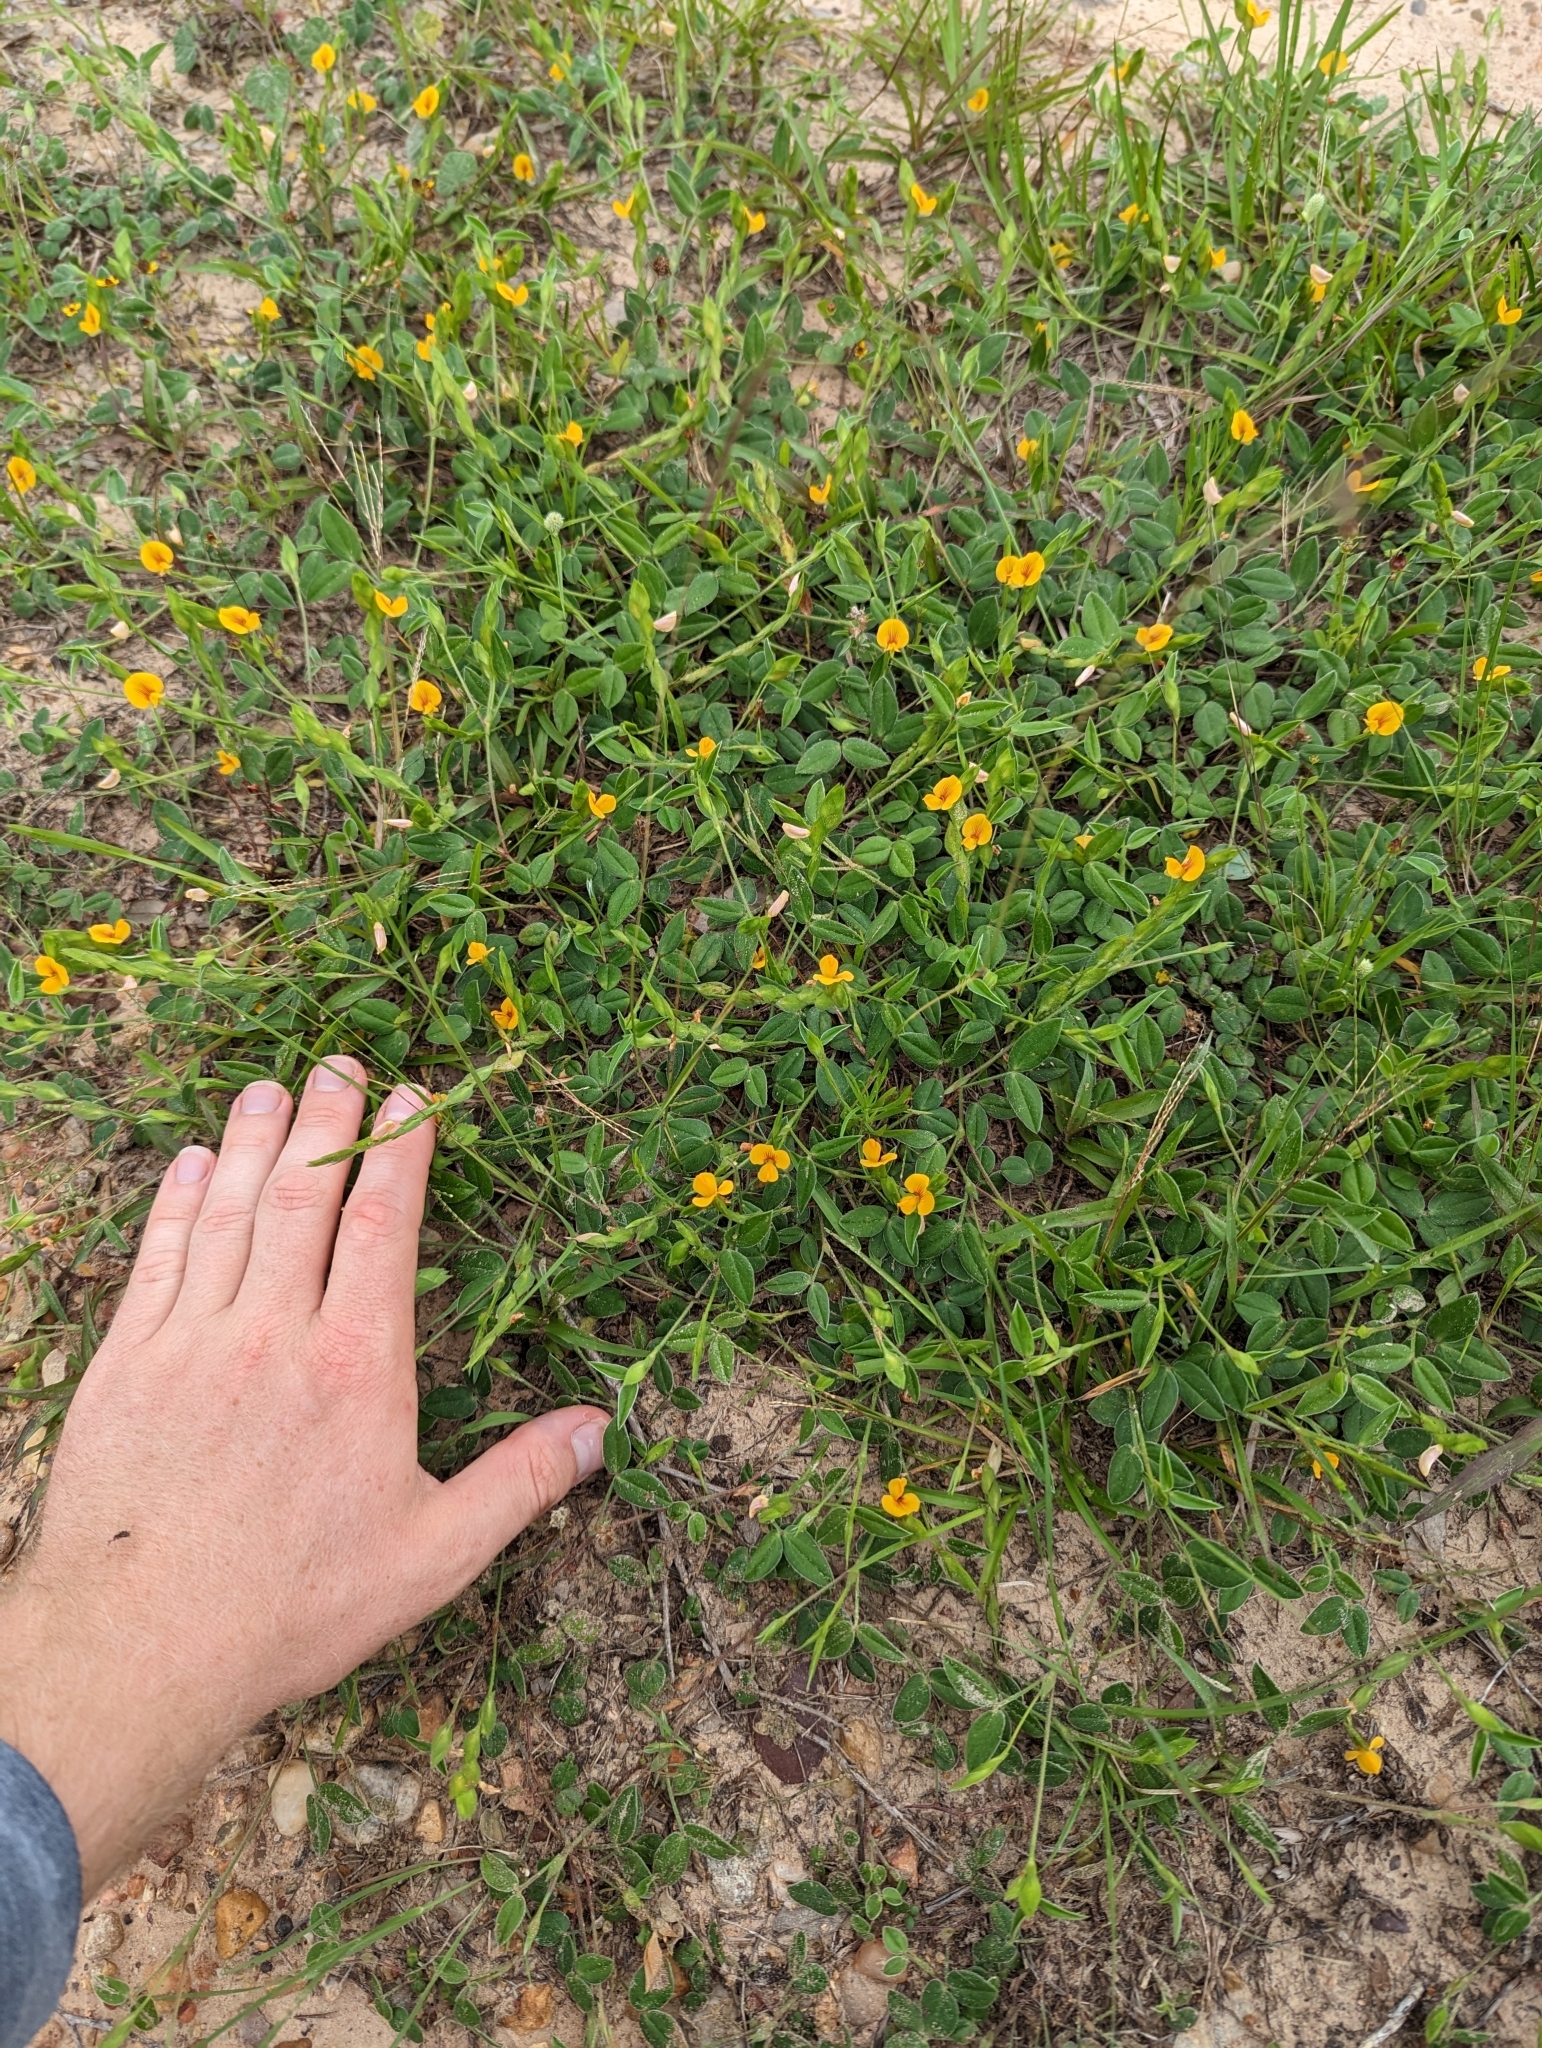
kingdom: Plantae
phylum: Tracheophyta
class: Magnoliopsida
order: Fabales
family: Fabaceae
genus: Zornia
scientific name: Zornia bracteata
